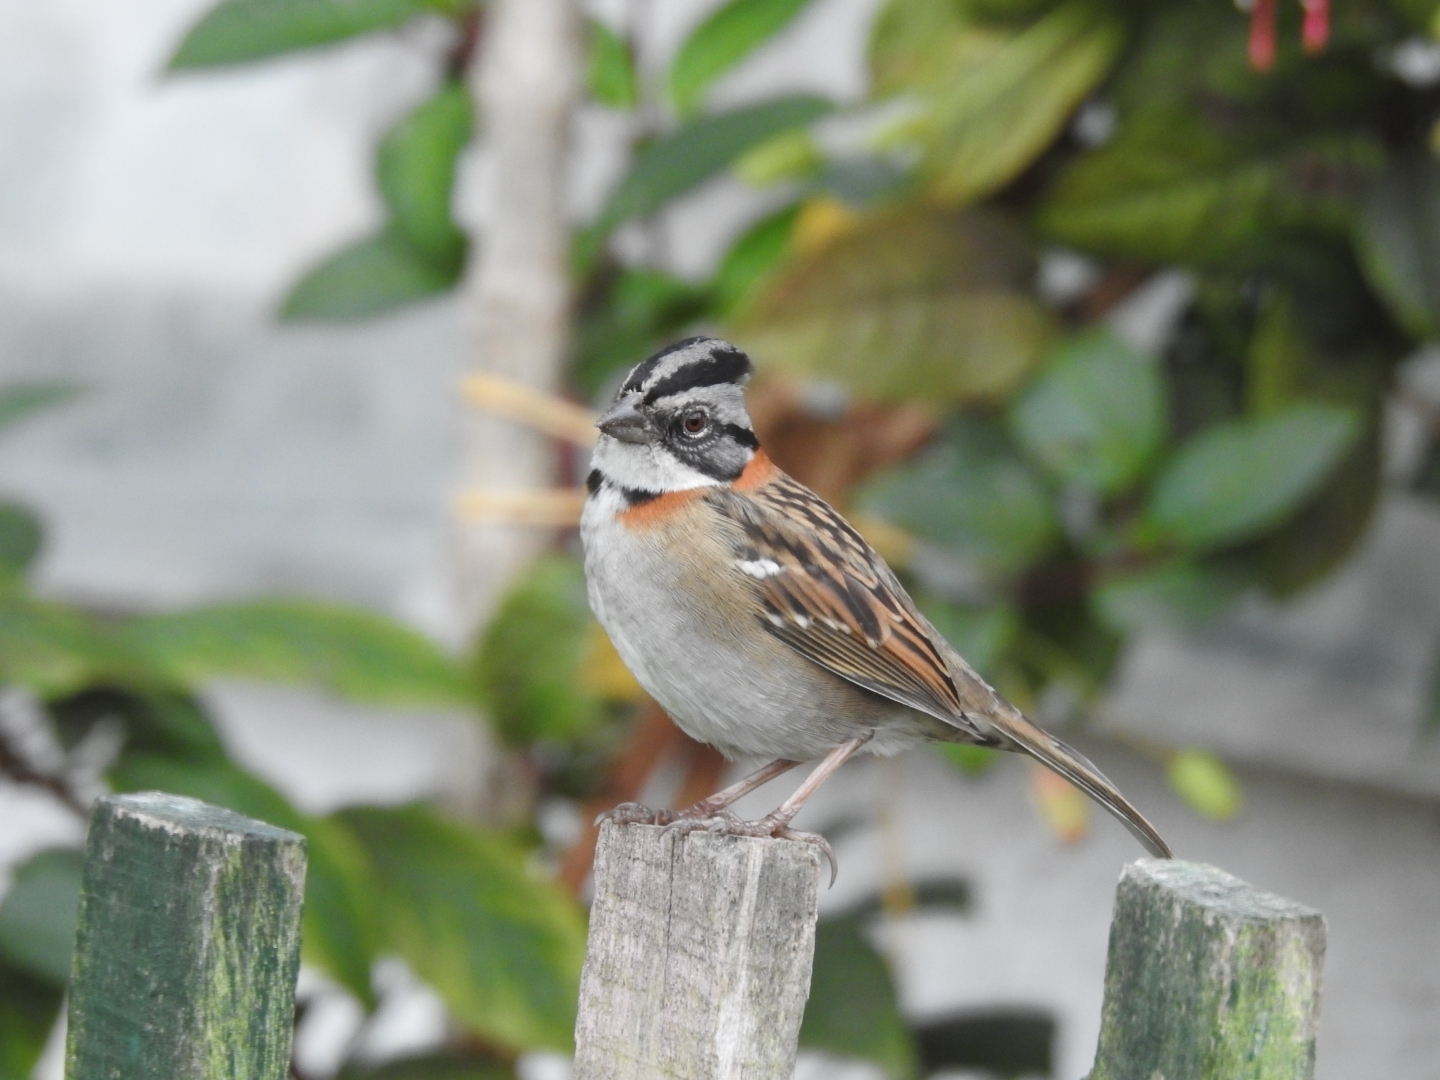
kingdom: Animalia
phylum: Chordata
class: Aves
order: Passeriformes
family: Passerellidae
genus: Zonotrichia
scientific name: Zonotrichia capensis
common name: Rufous-collared sparrow
